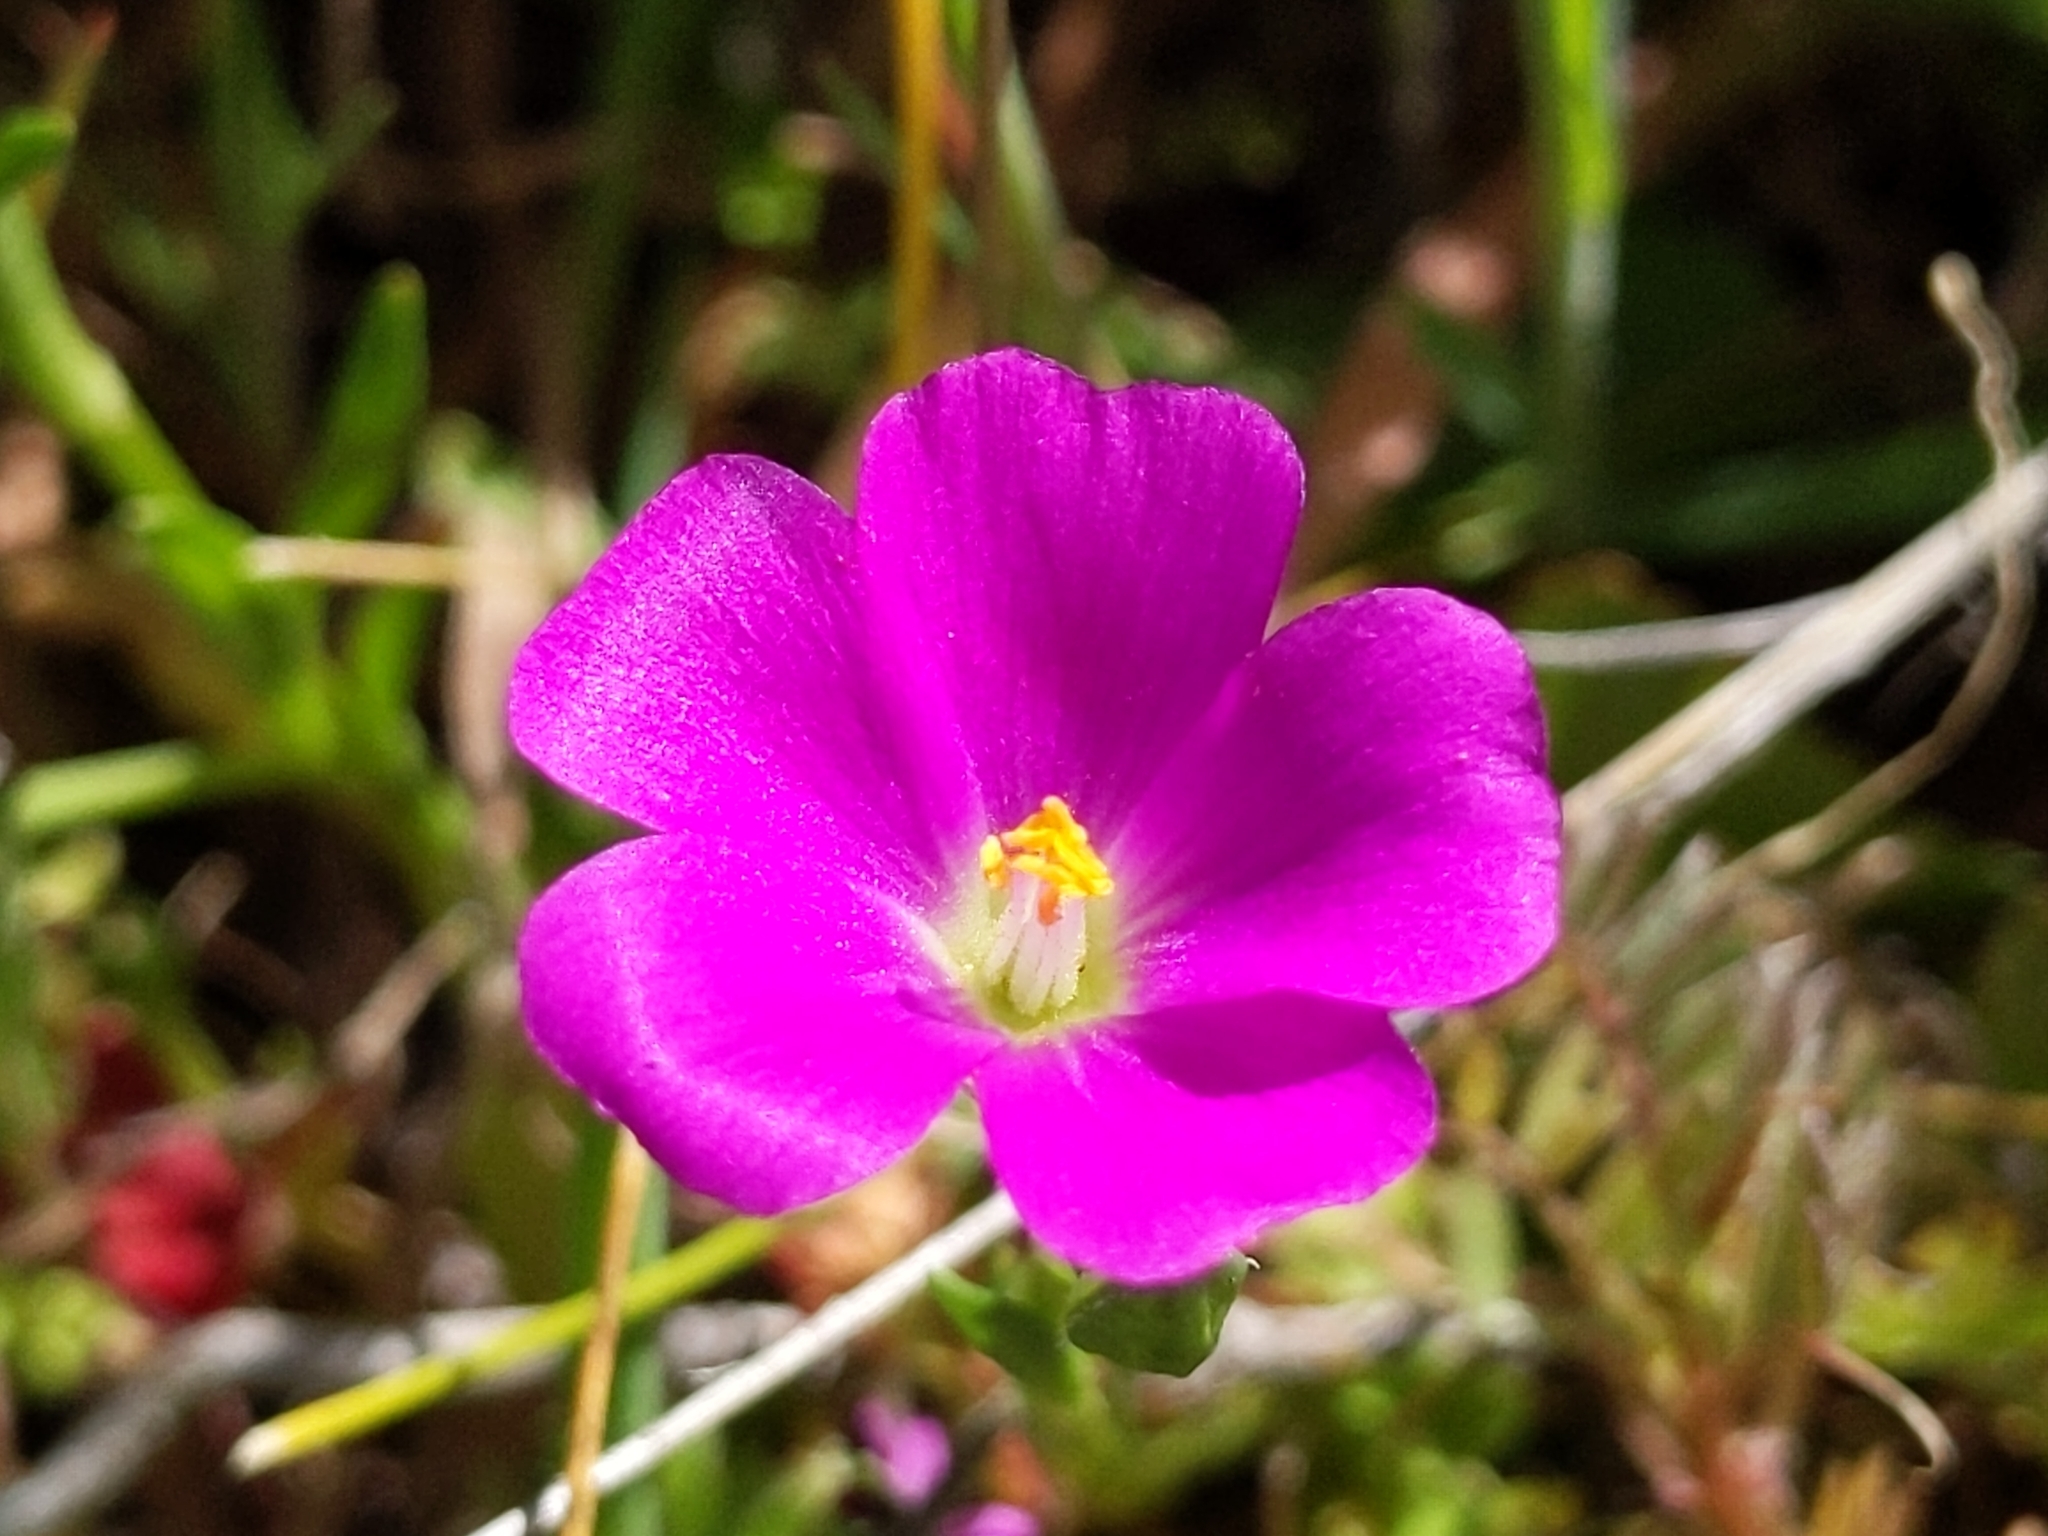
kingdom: Plantae
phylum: Tracheophyta
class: Magnoliopsida
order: Caryophyllales
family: Montiaceae
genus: Calandrinia
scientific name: Calandrinia menziesii
